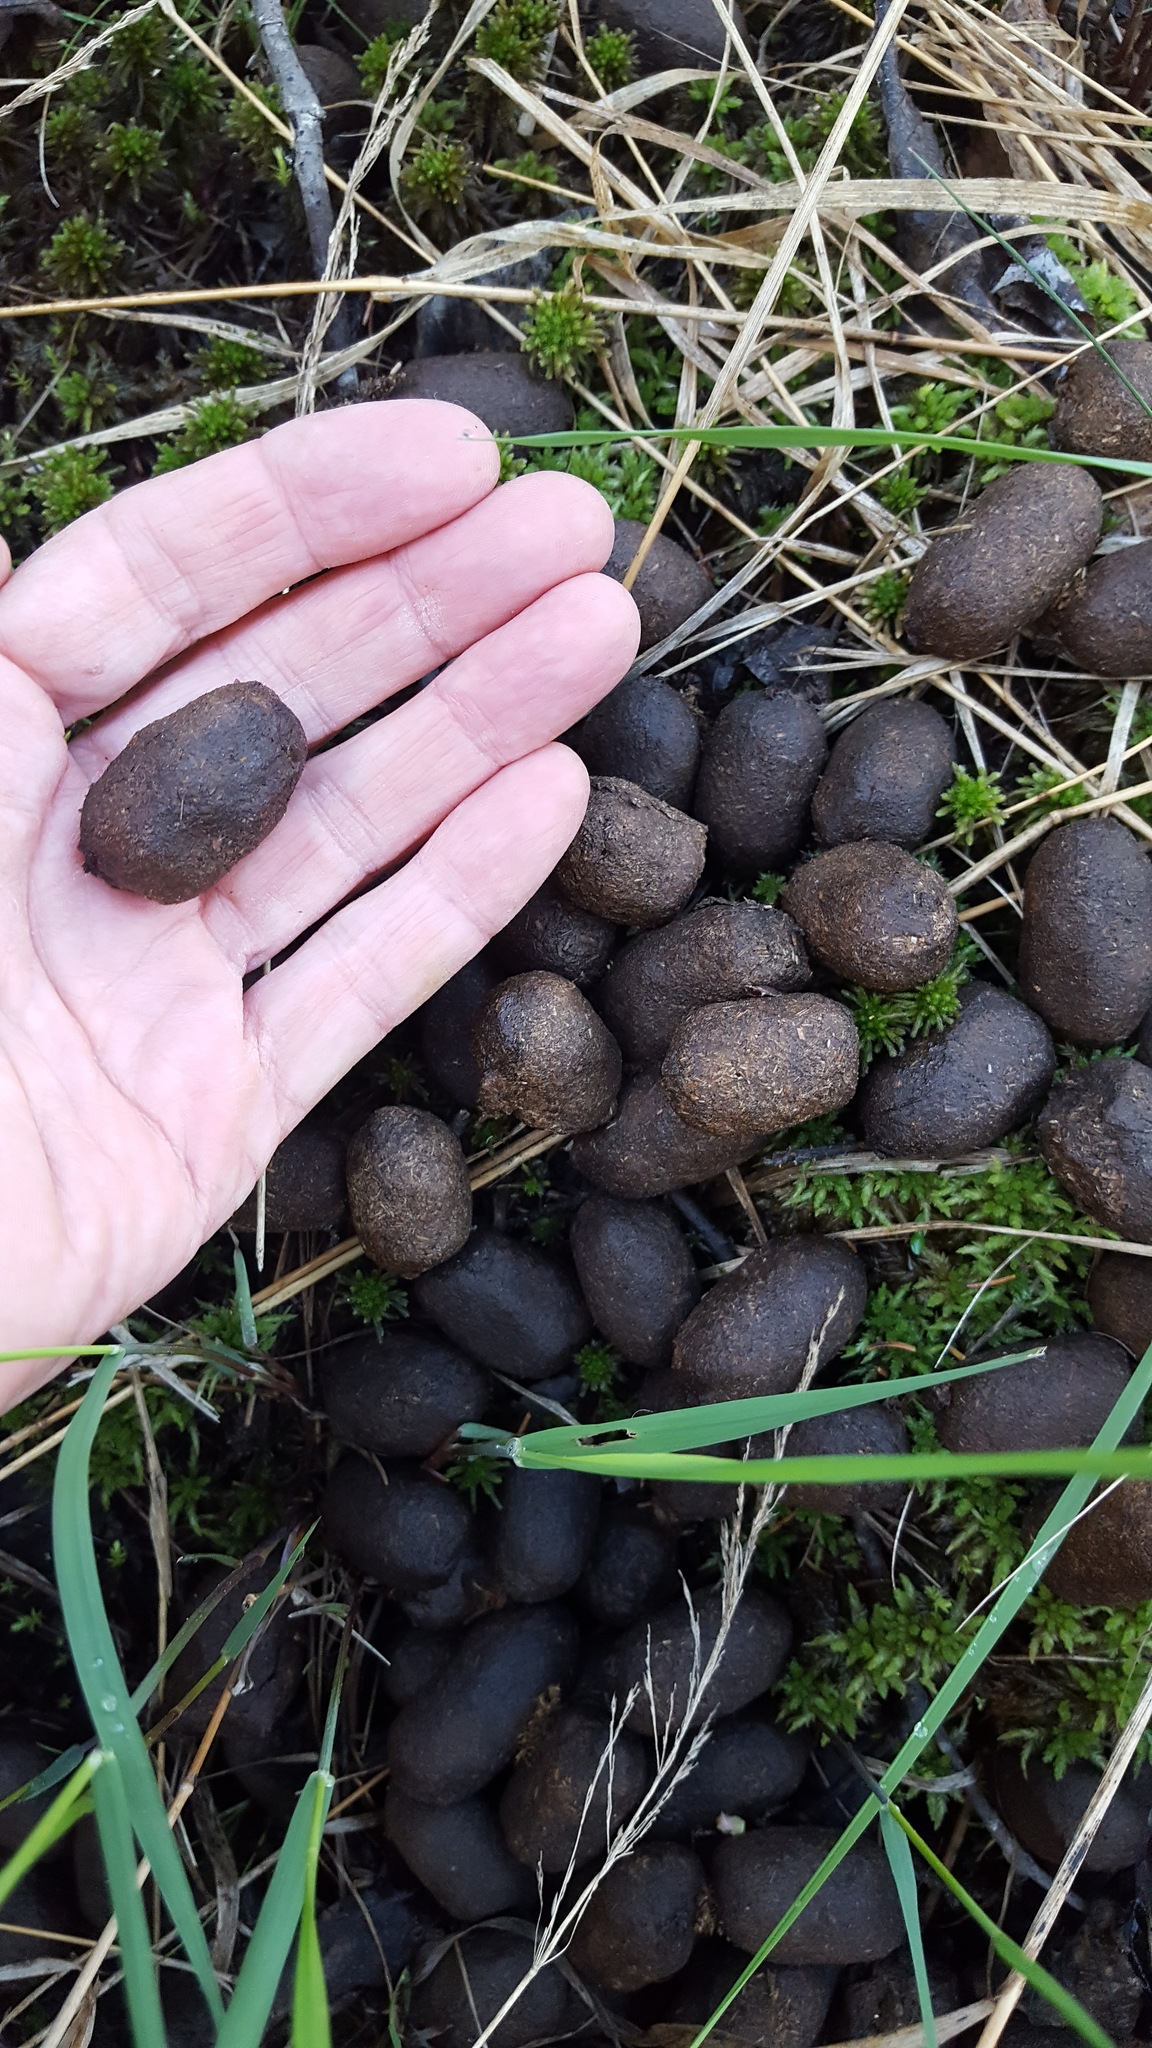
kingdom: Animalia
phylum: Chordata
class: Mammalia
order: Artiodactyla
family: Cervidae
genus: Alces
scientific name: Alces alces
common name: Moose
